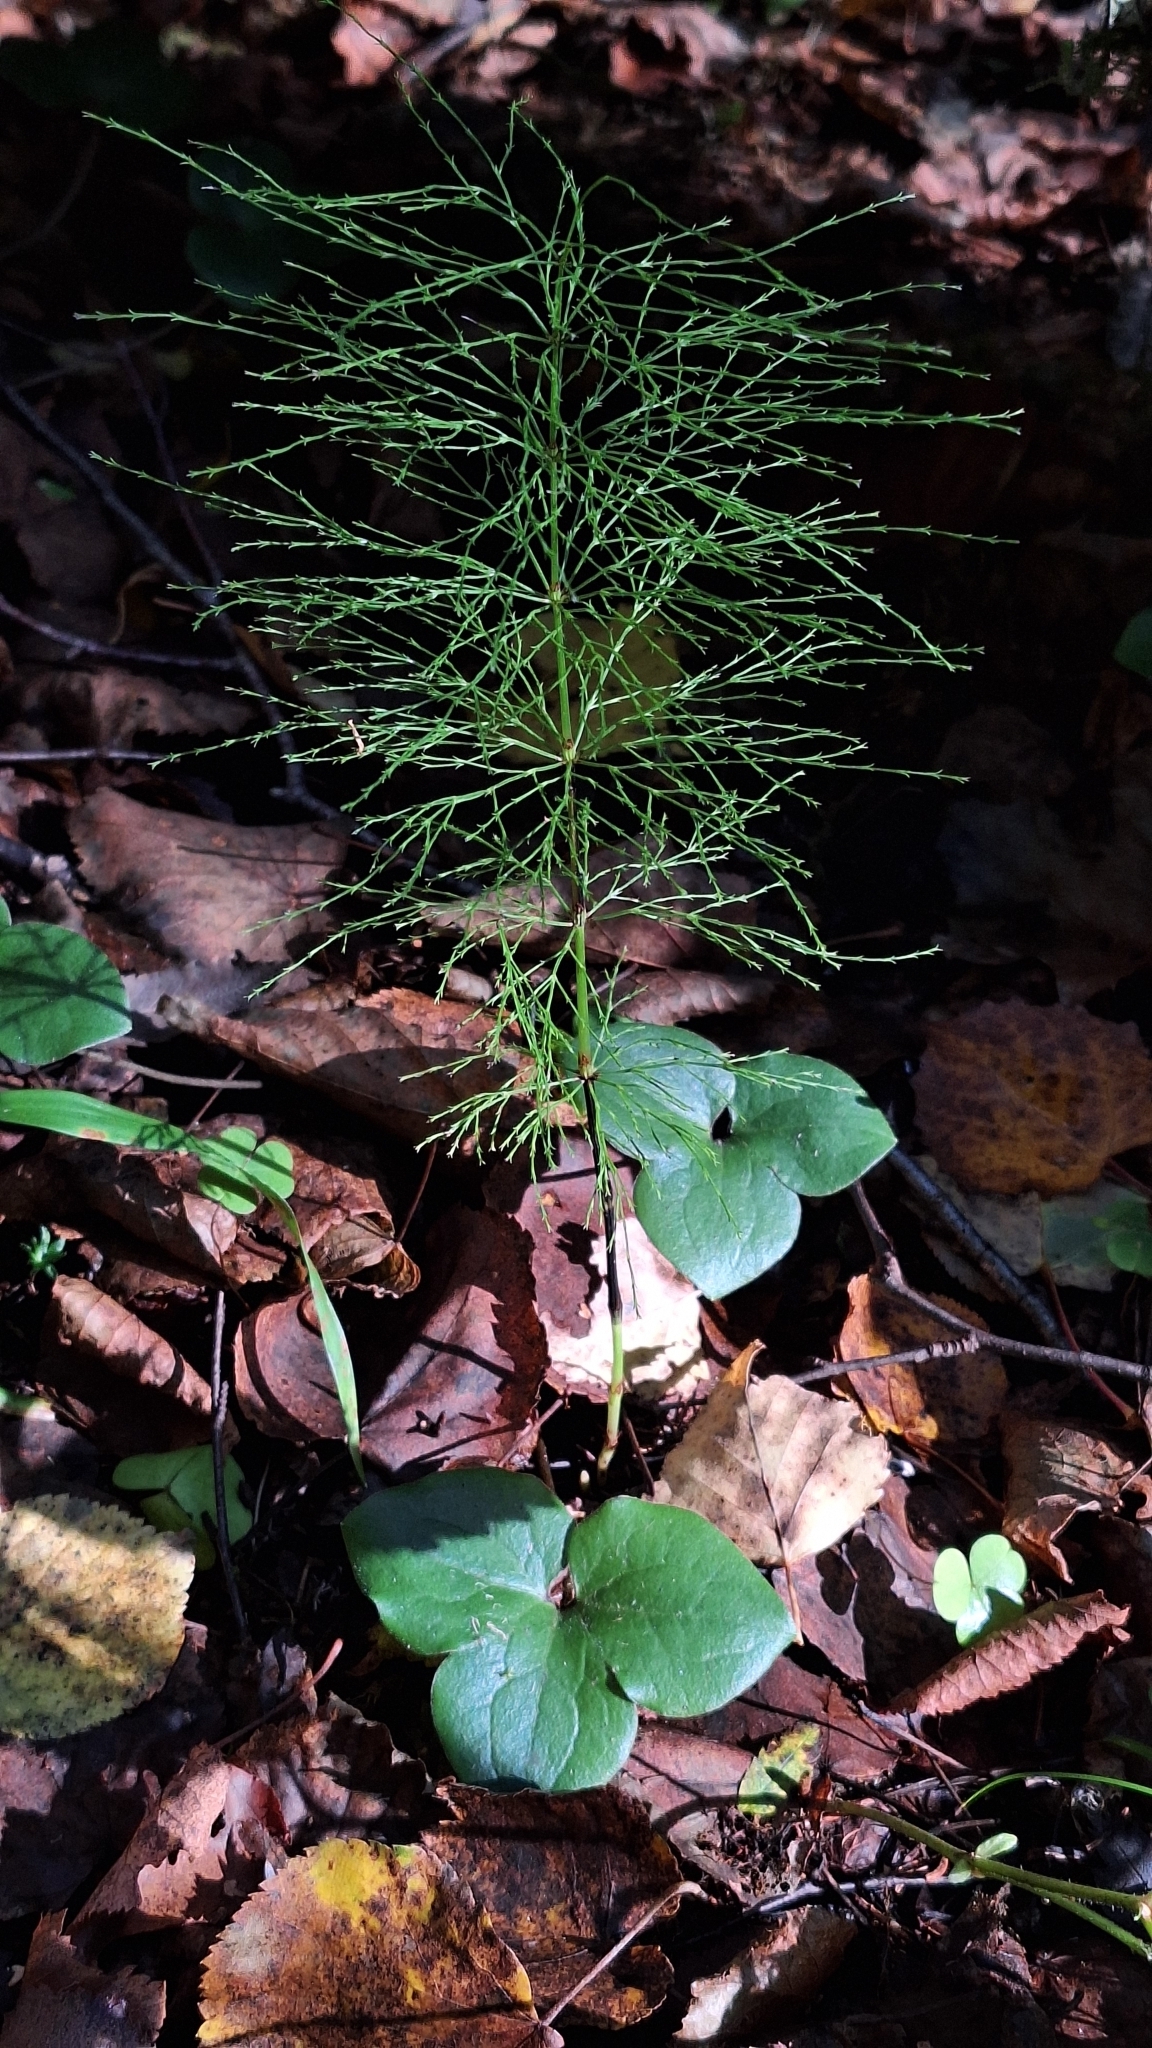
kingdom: Plantae
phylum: Tracheophyta
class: Polypodiopsida
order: Equisetales
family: Equisetaceae
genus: Equisetum
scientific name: Equisetum sylvaticum
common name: Wood horsetail
